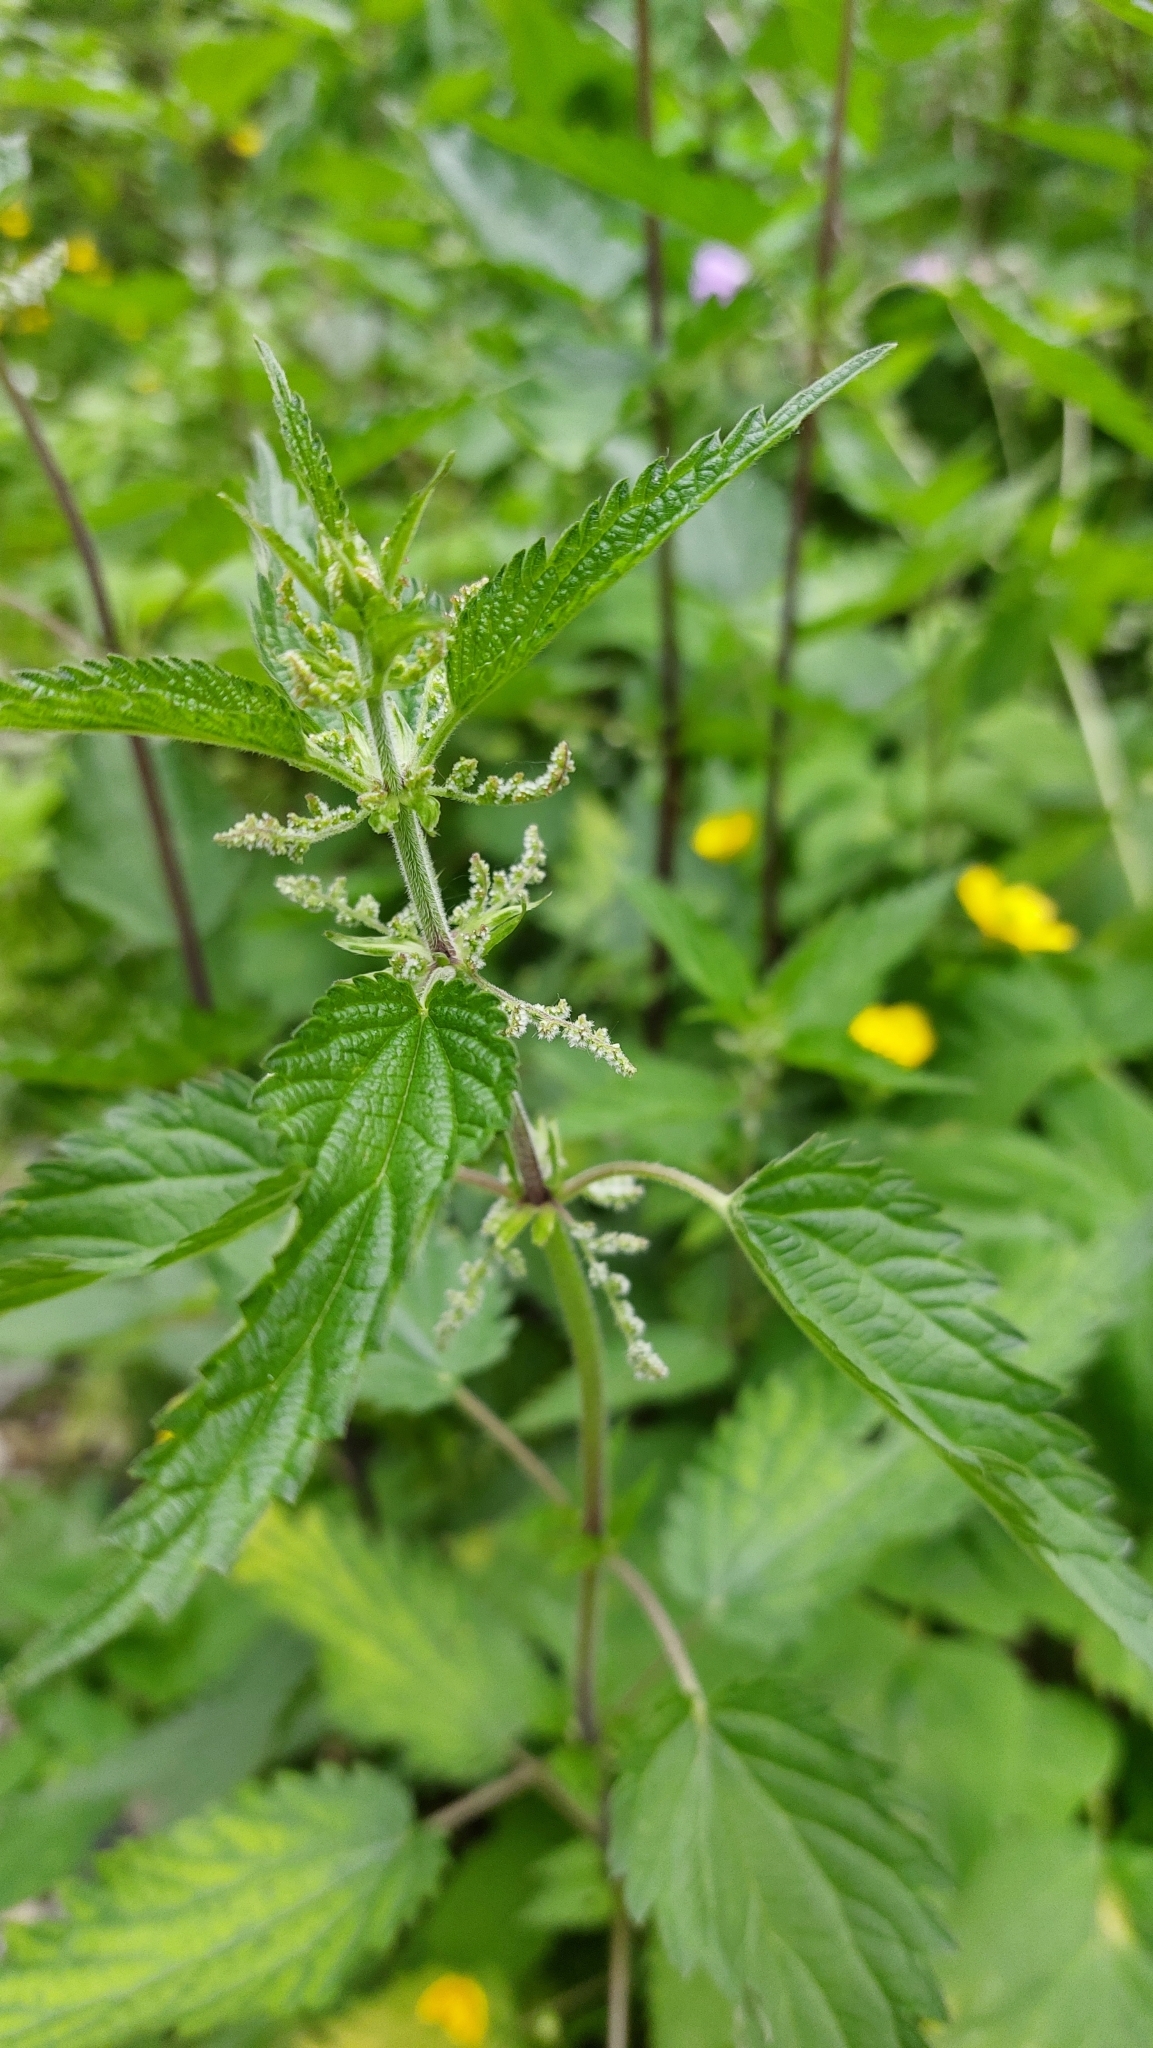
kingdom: Plantae
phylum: Tracheophyta
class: Magnoliopsida
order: Rosales
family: Urticaceae
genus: Urtica
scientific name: Urtica dioica
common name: Common nettle
